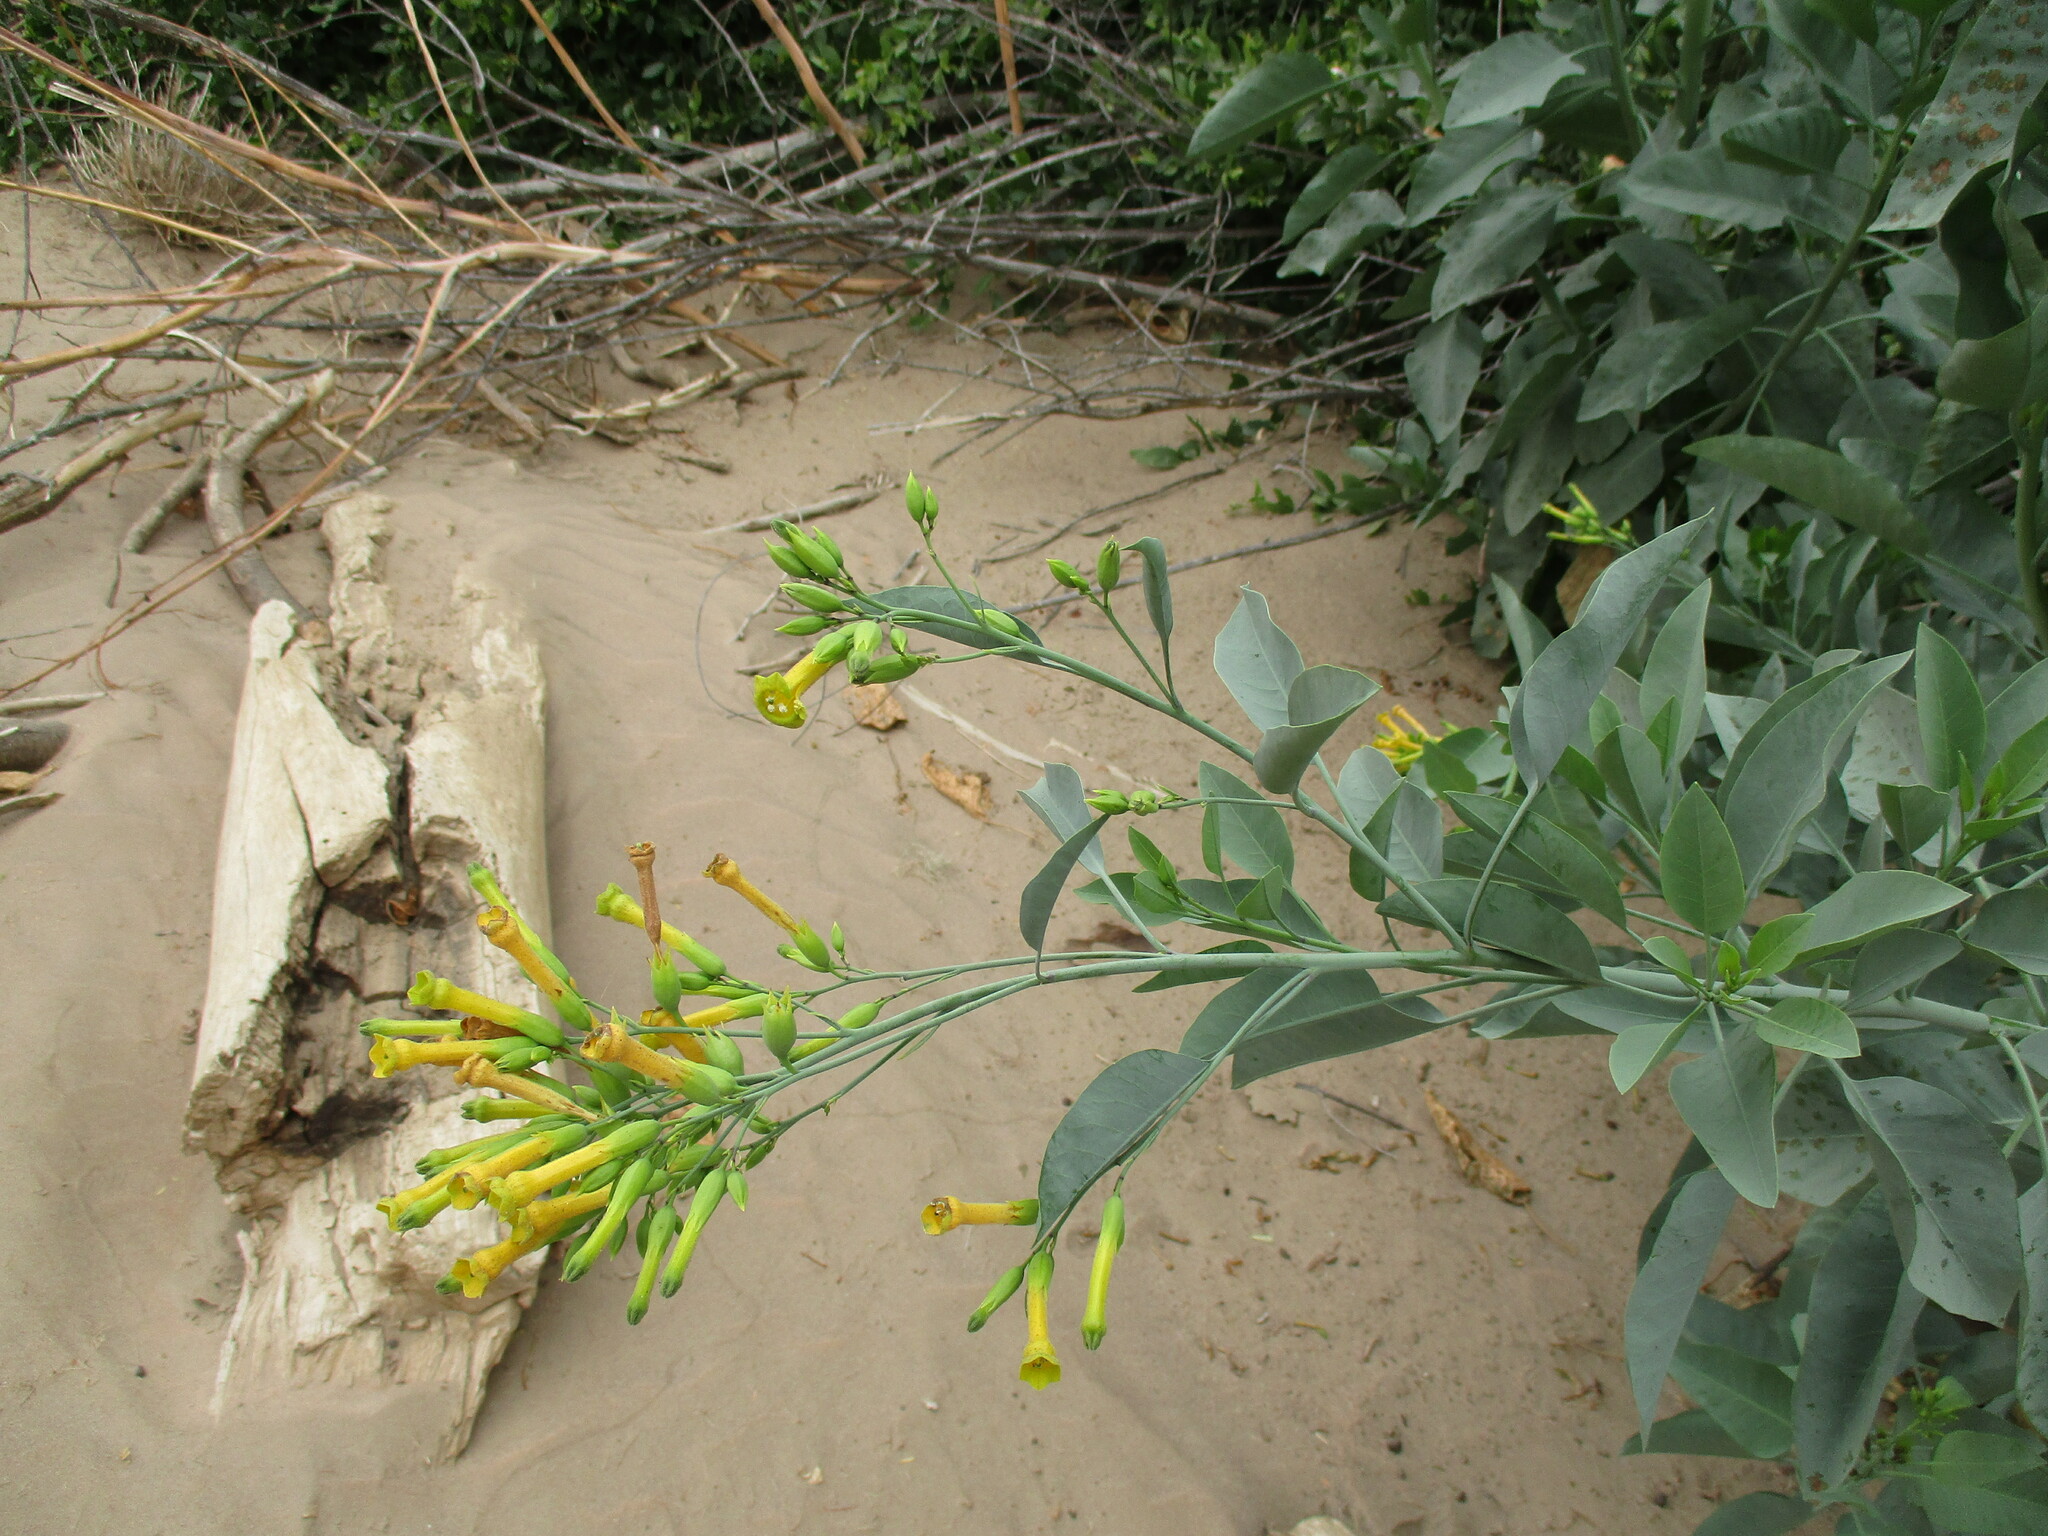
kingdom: Plantae
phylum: Tracheophyta
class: Magnoliopsida
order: Solanales
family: Solanaceae
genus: Nicotiana
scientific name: Nicotiana glauca
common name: Tree tobacco
